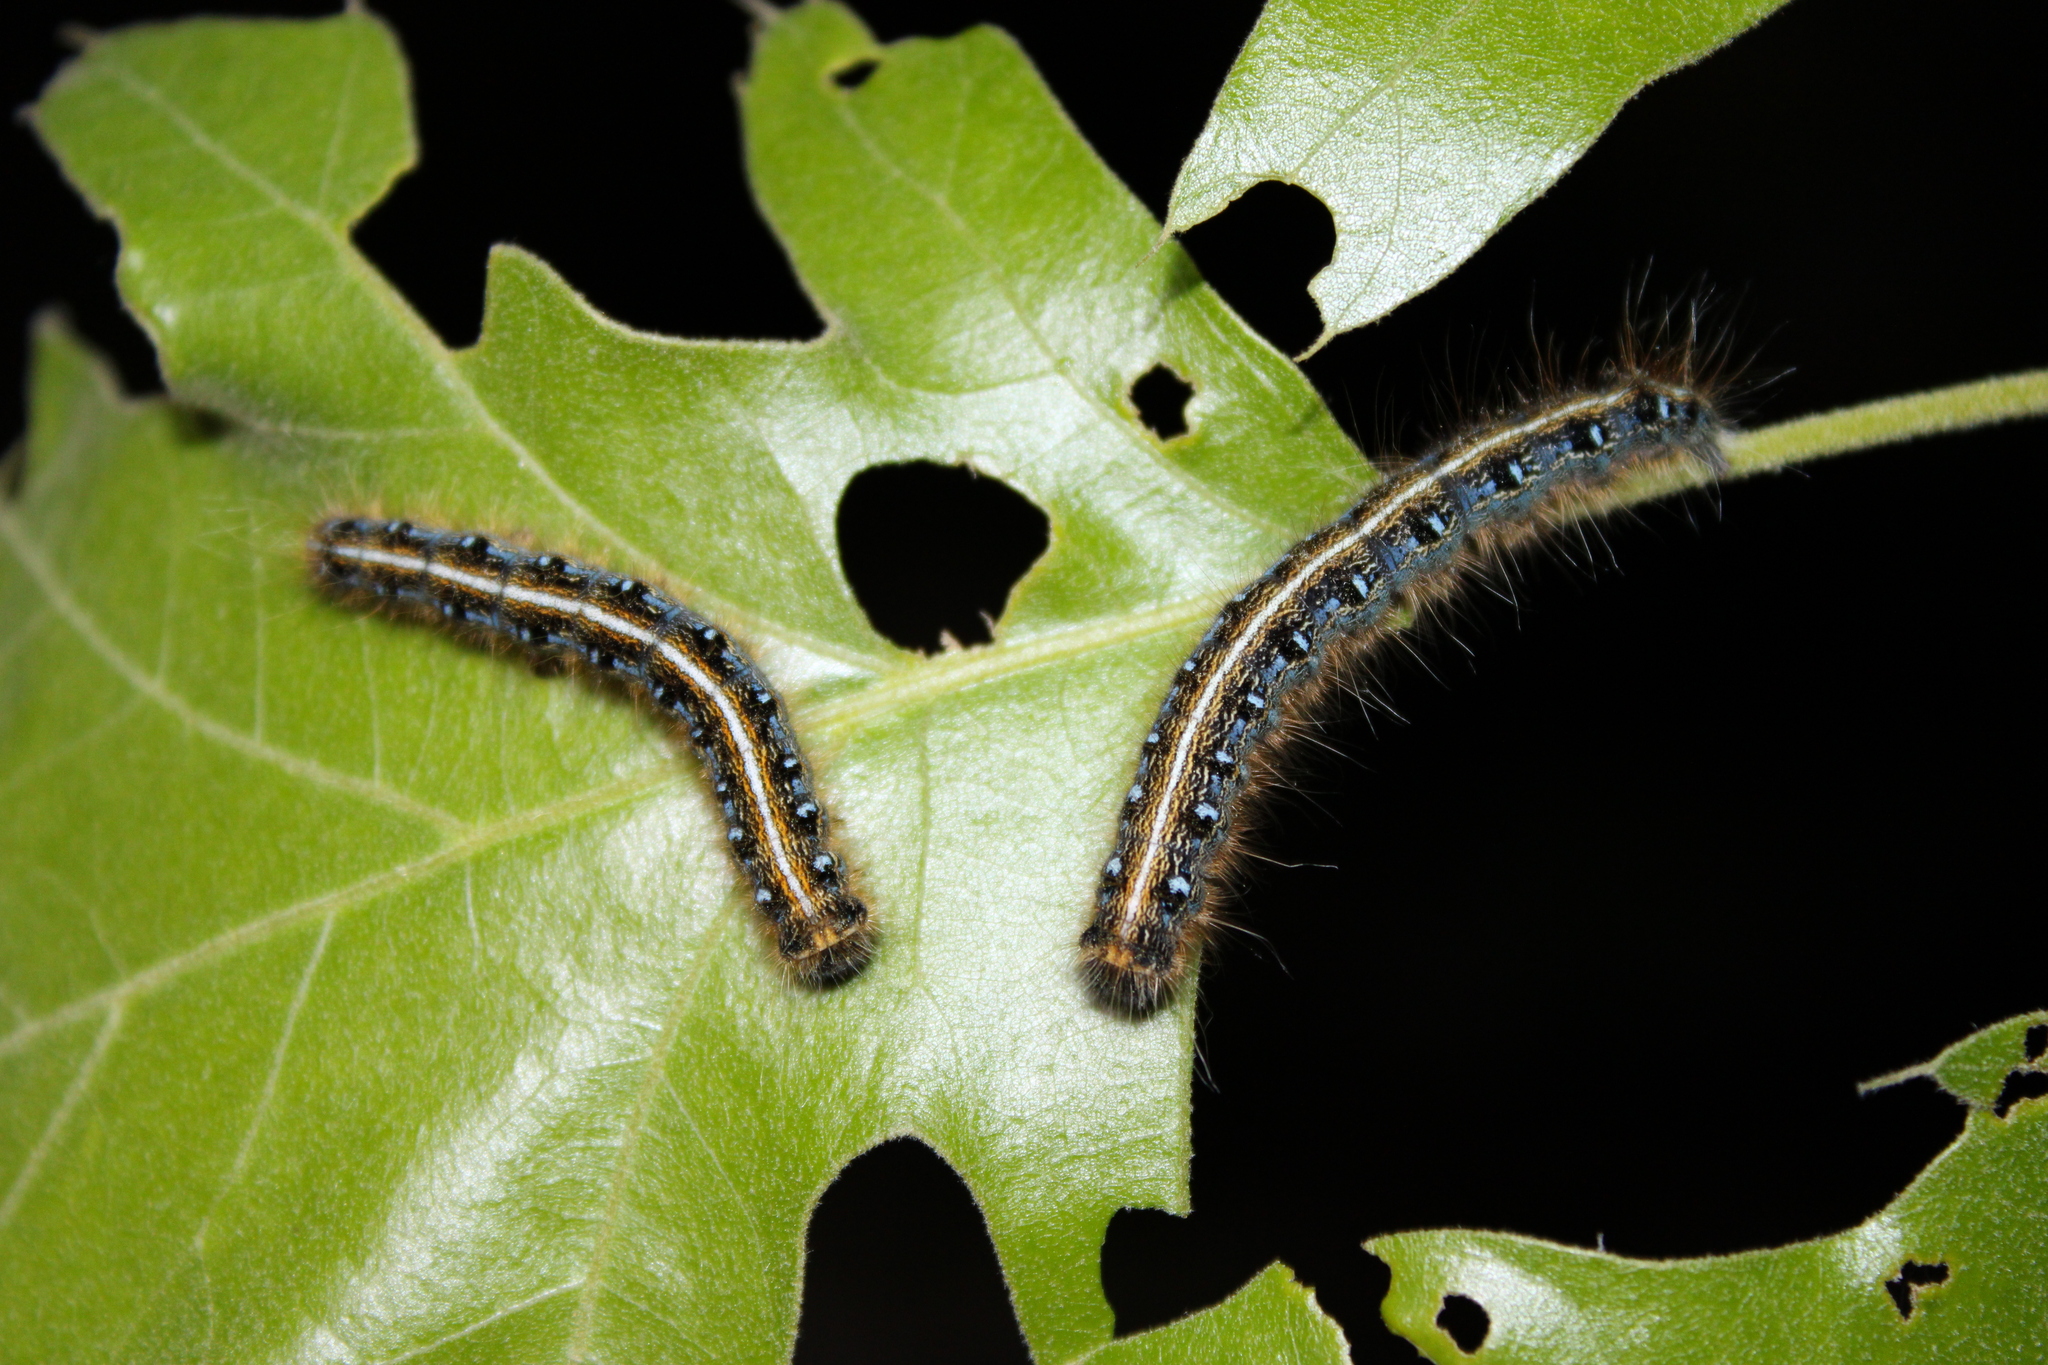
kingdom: Animalia
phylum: Arthropoda
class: Insecta
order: Lepidoptera
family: Lasiocampidae
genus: Malacosoma
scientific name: Malacosoma americana
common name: Eastern tent caterpillar moth
